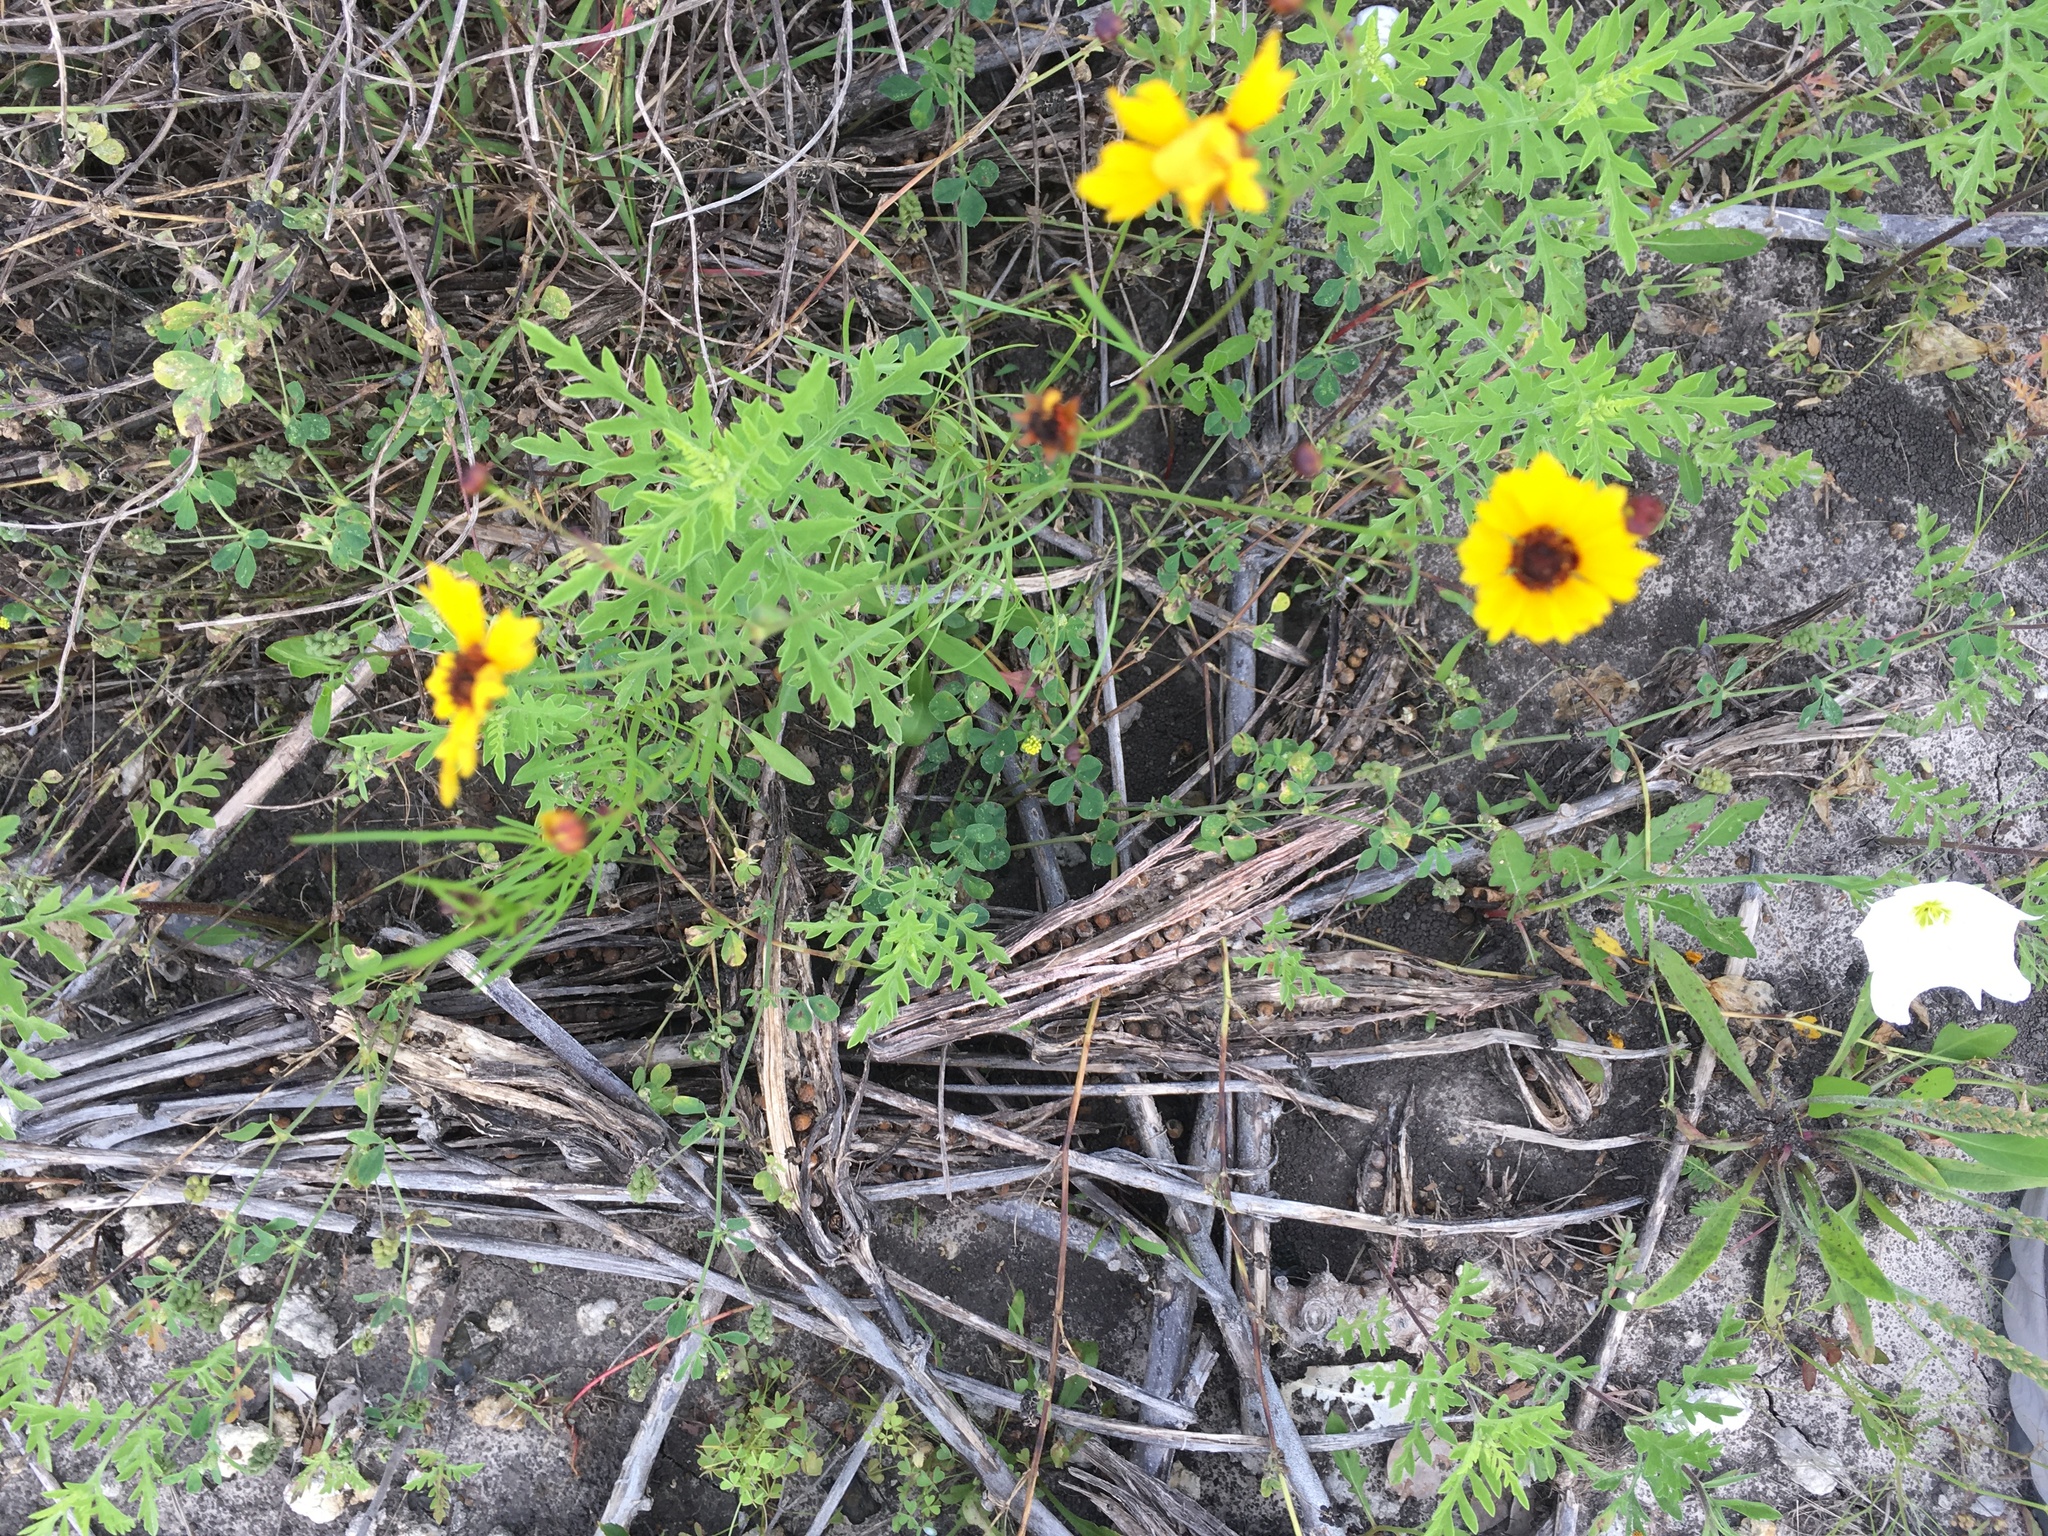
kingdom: Plantae
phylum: Tracheophyta
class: Magnoliopsida
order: Asterales
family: Asteraceae
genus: Coreopsis
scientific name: Coreopsis tinctoria
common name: Garden tickseed
